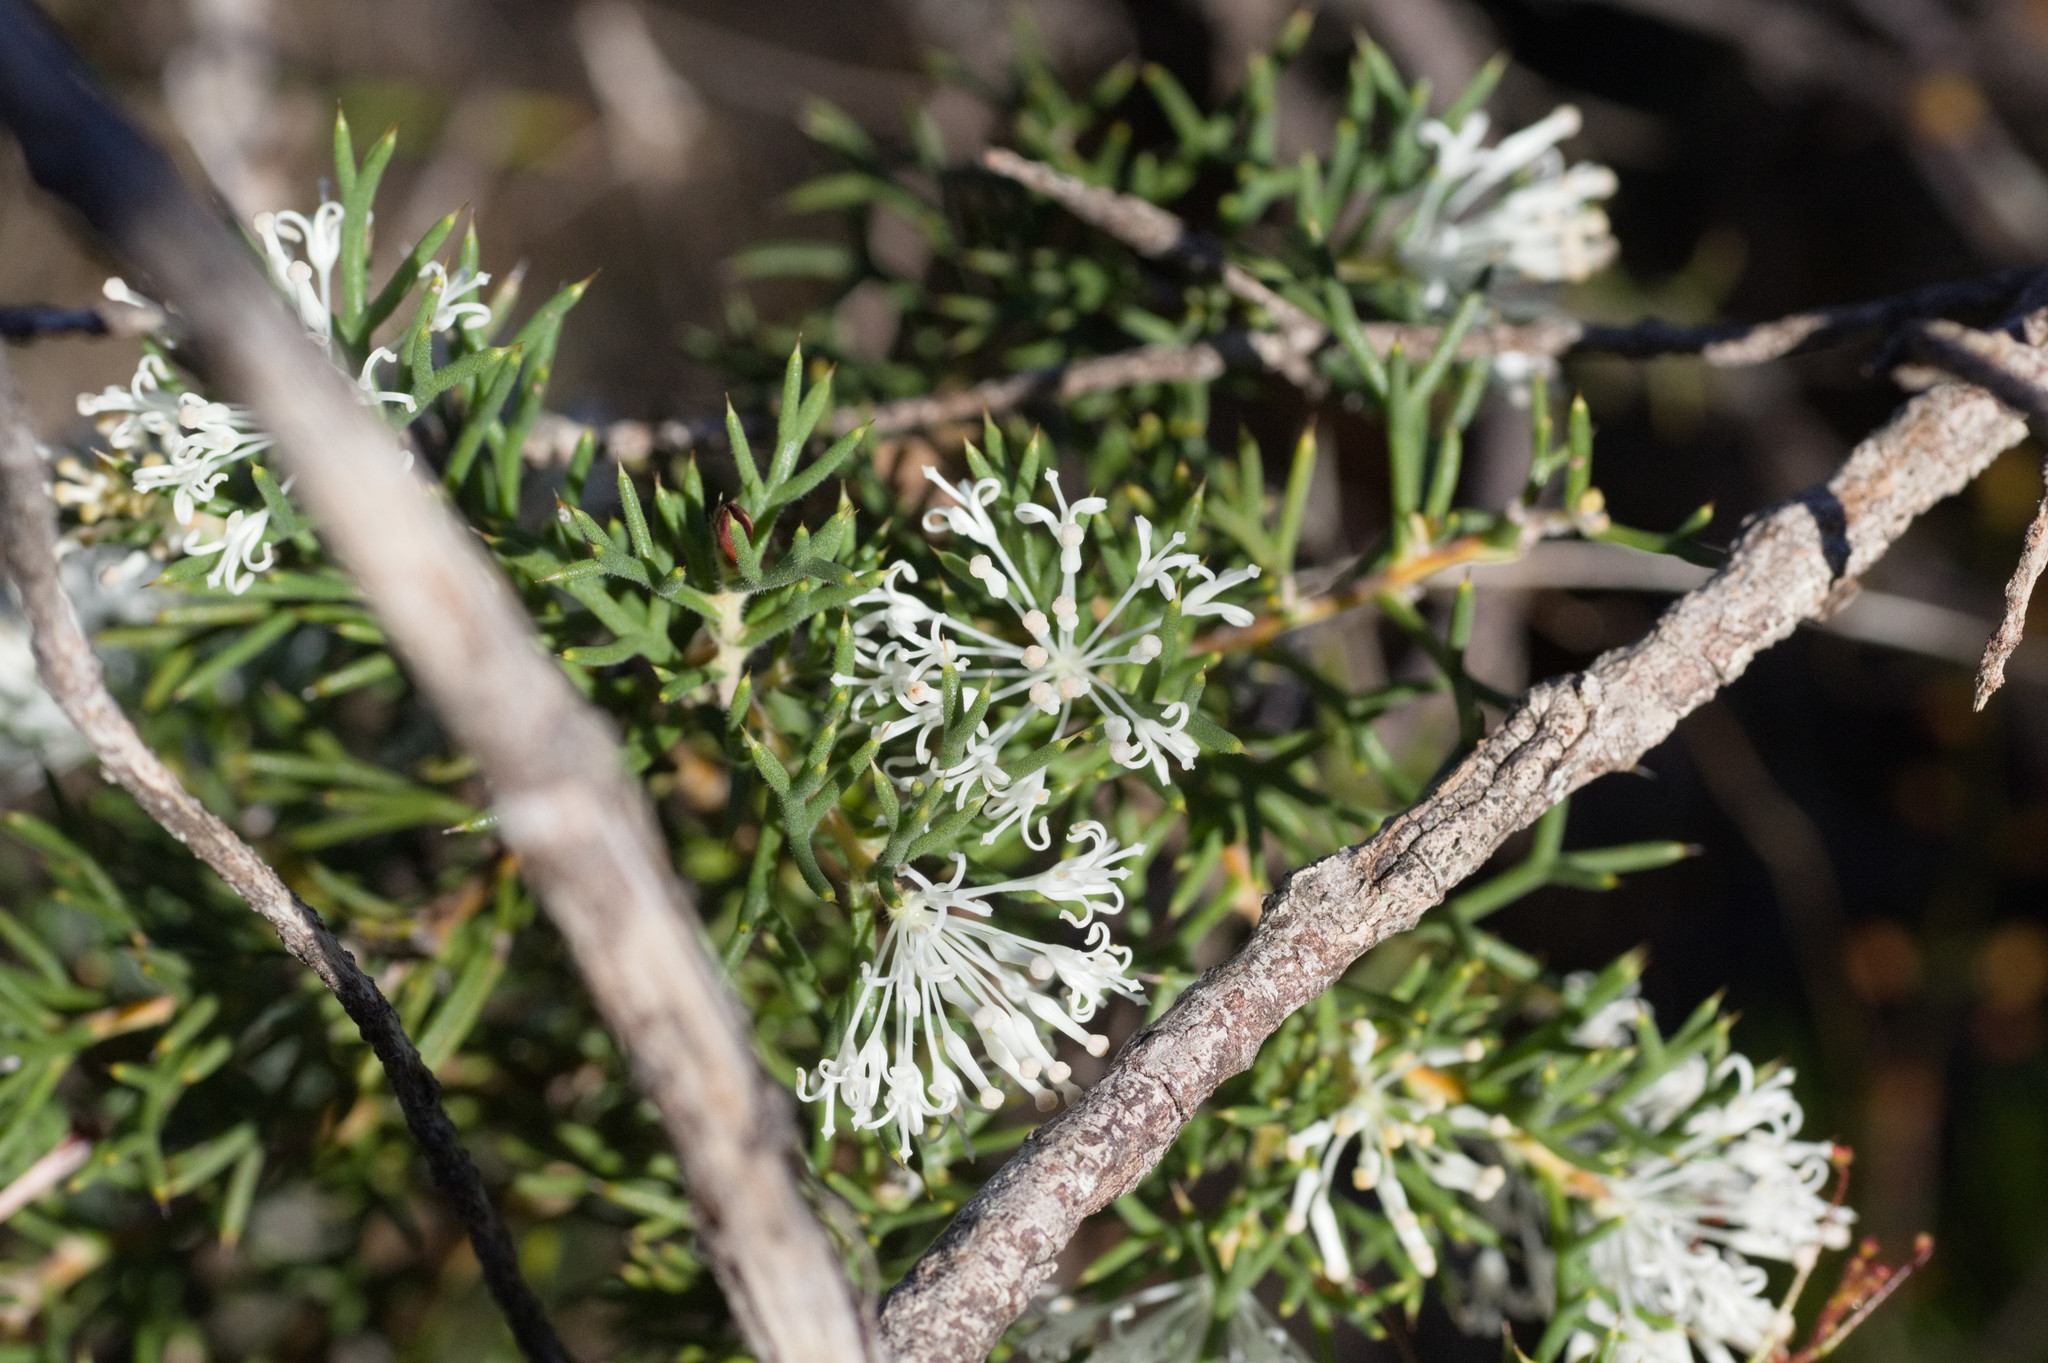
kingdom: Plantae
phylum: Tracheophyta
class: Magnoliopsida
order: Proteales
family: Proteaceae
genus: Hakea
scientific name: Hakea lissocarpha
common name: Honey bush
